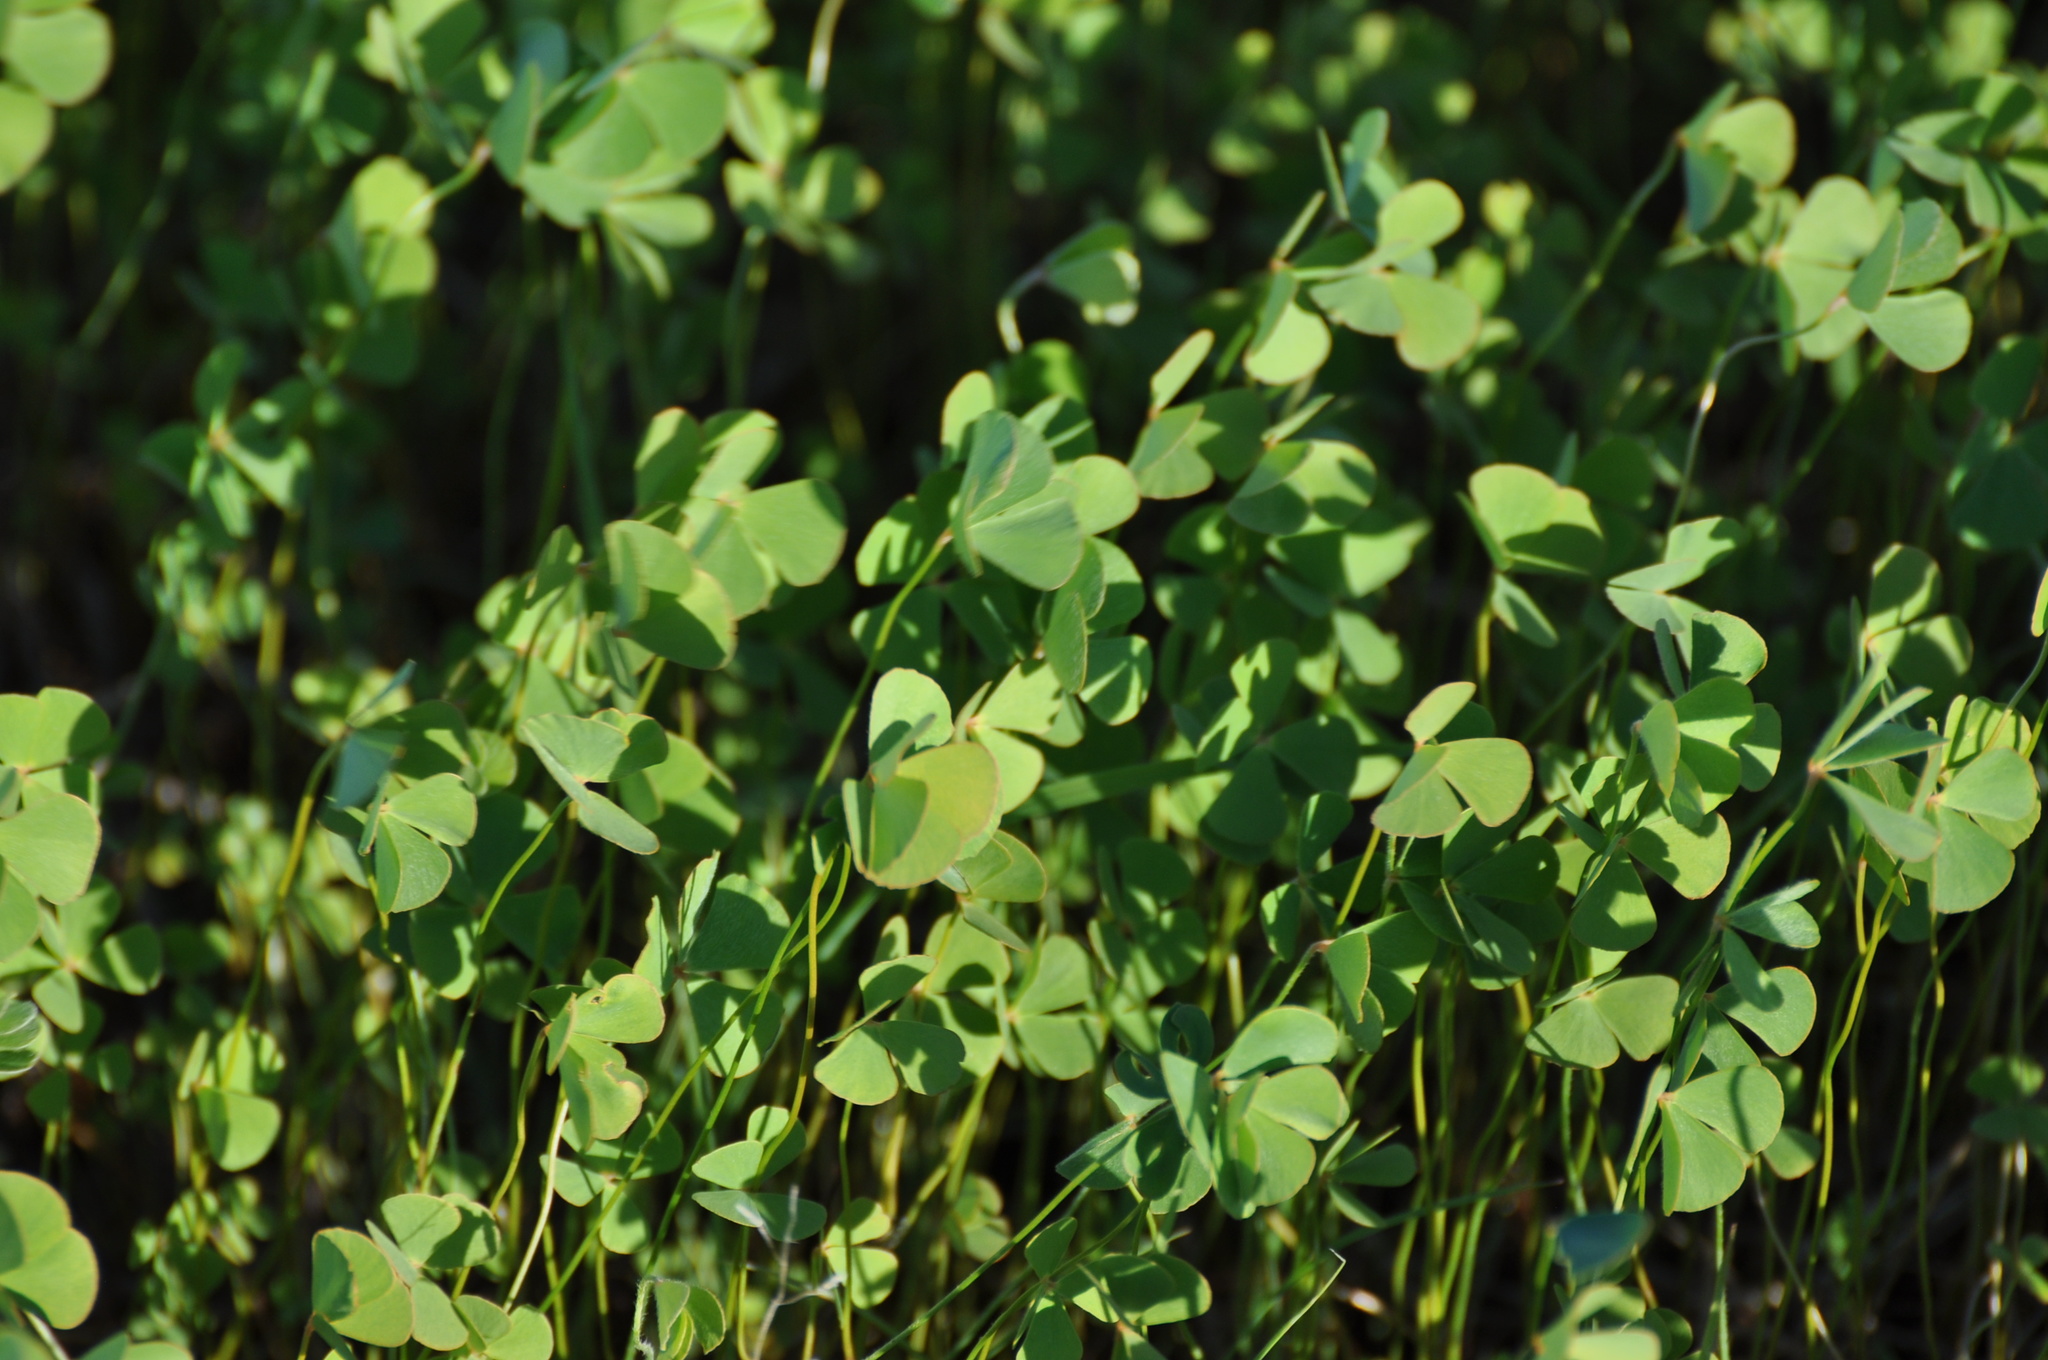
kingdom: Plantae
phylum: Tracheophyta
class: Polypodiopsida
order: Salviniales
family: Marsileaceae
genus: Marsilea
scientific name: Marsilea vestita
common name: Hooked-pepperwort
